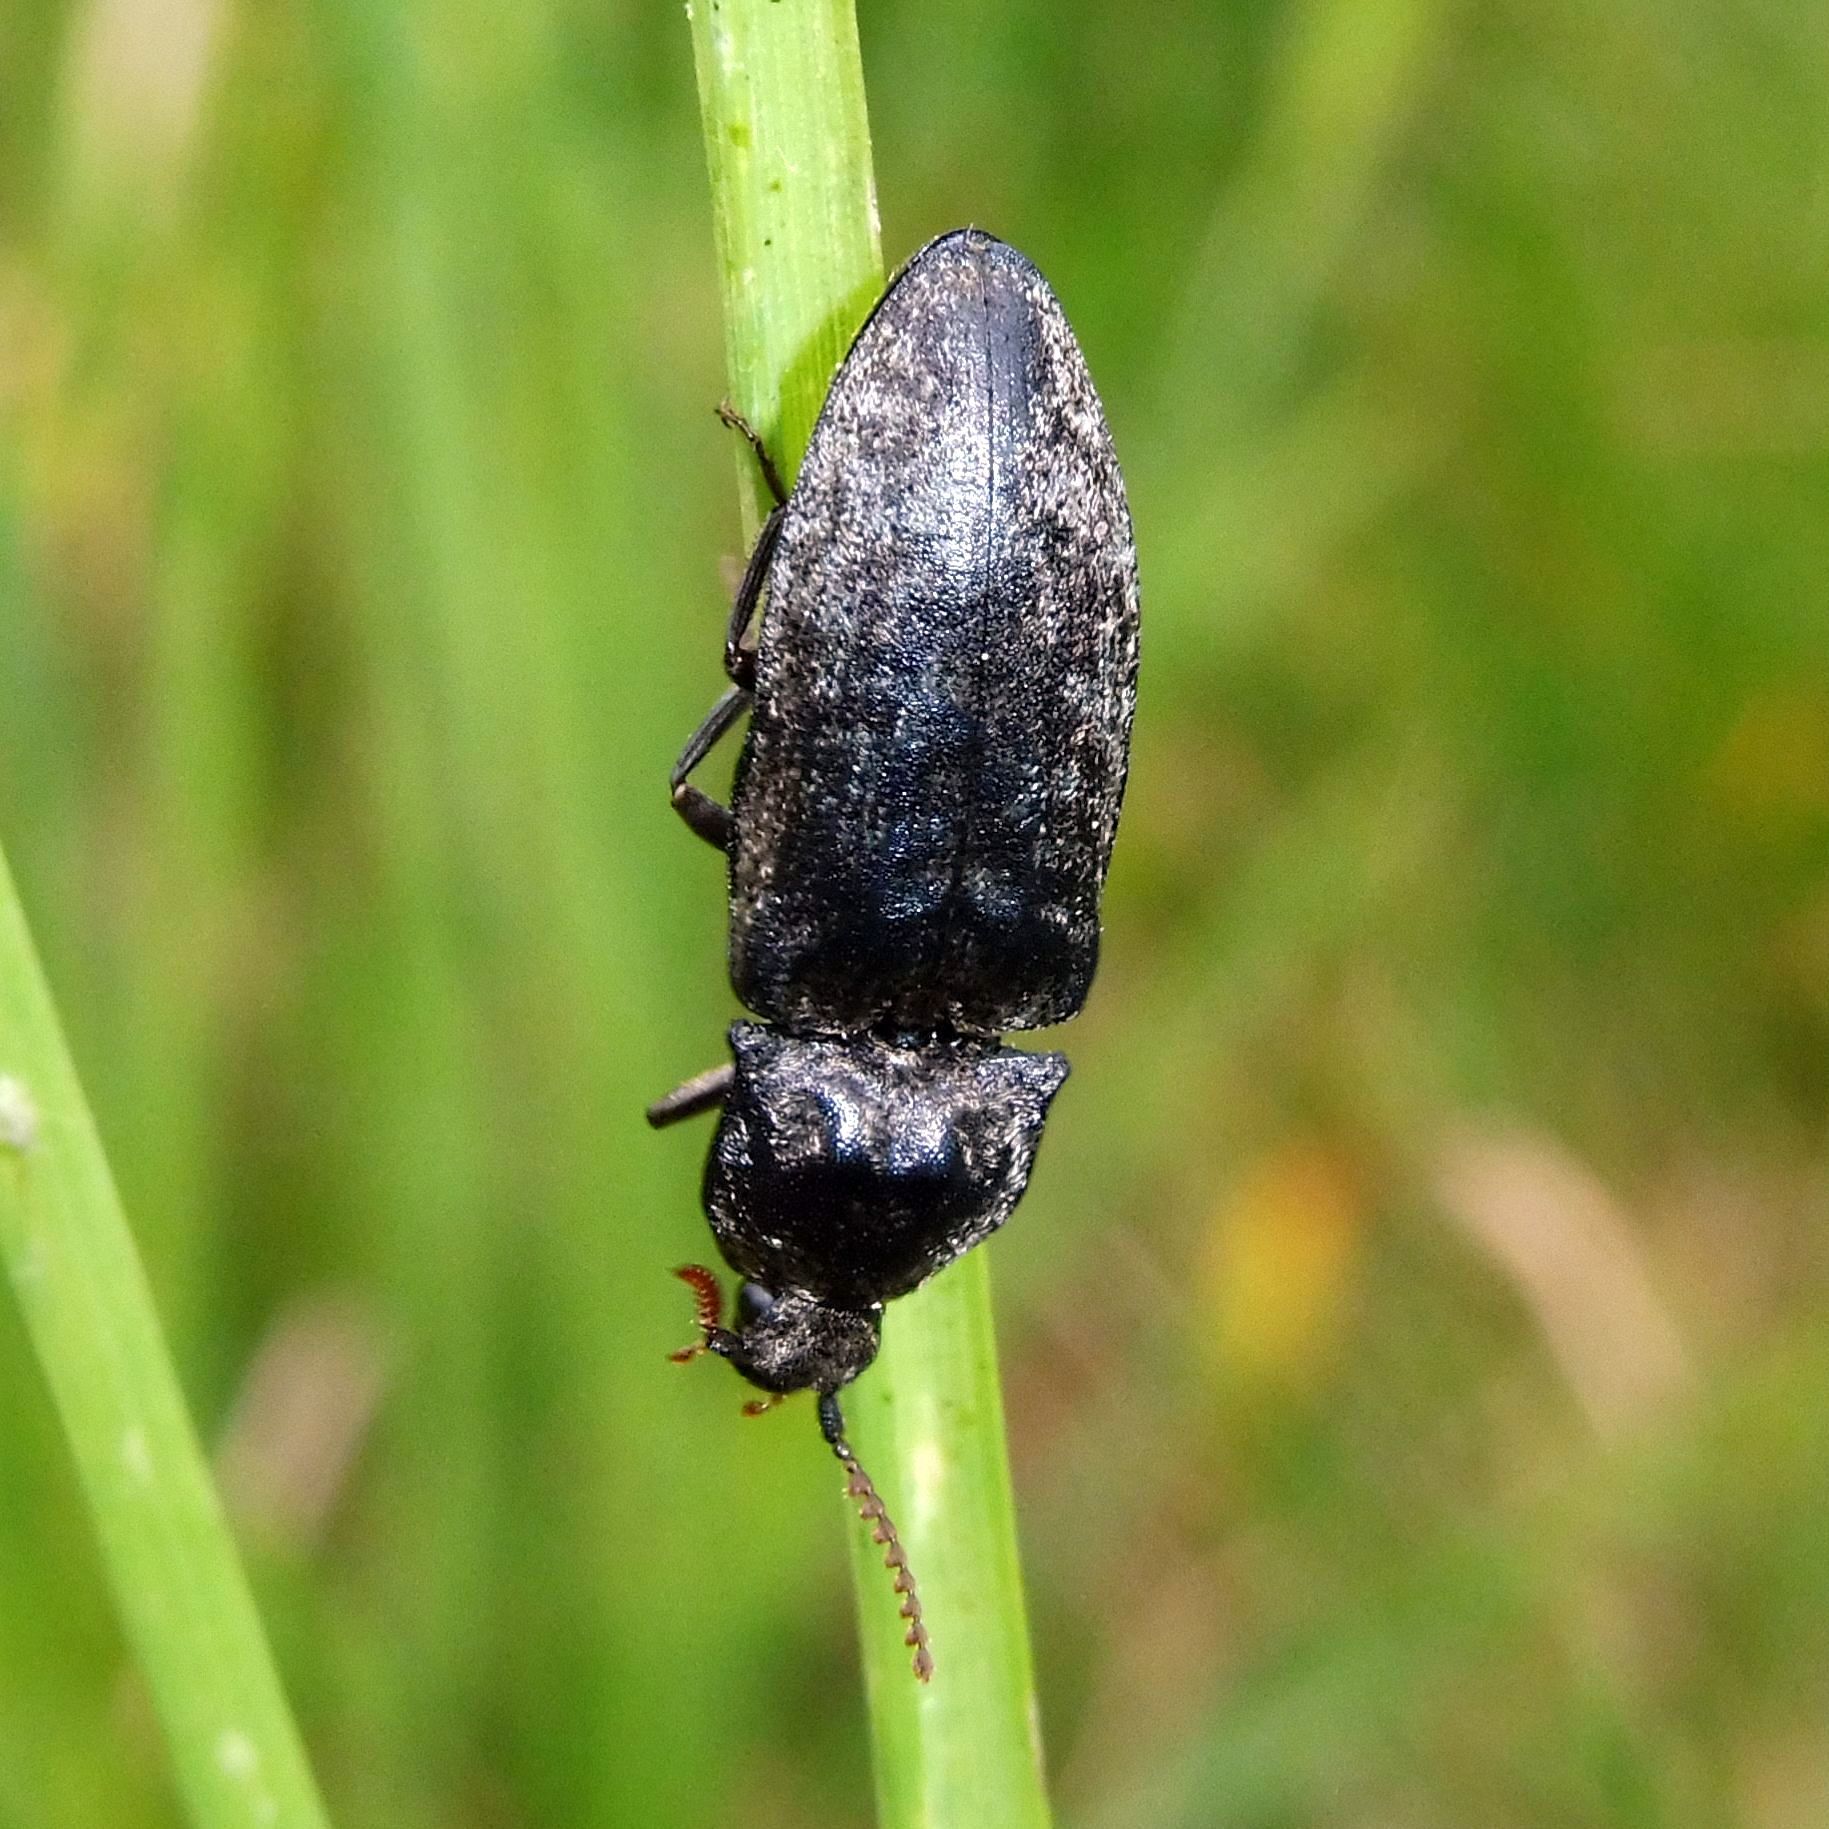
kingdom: Animalia
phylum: Arthropoda
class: Insecta
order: Coleoptera
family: Elateridae
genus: Agrypnus
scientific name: Agrypnus murinus
